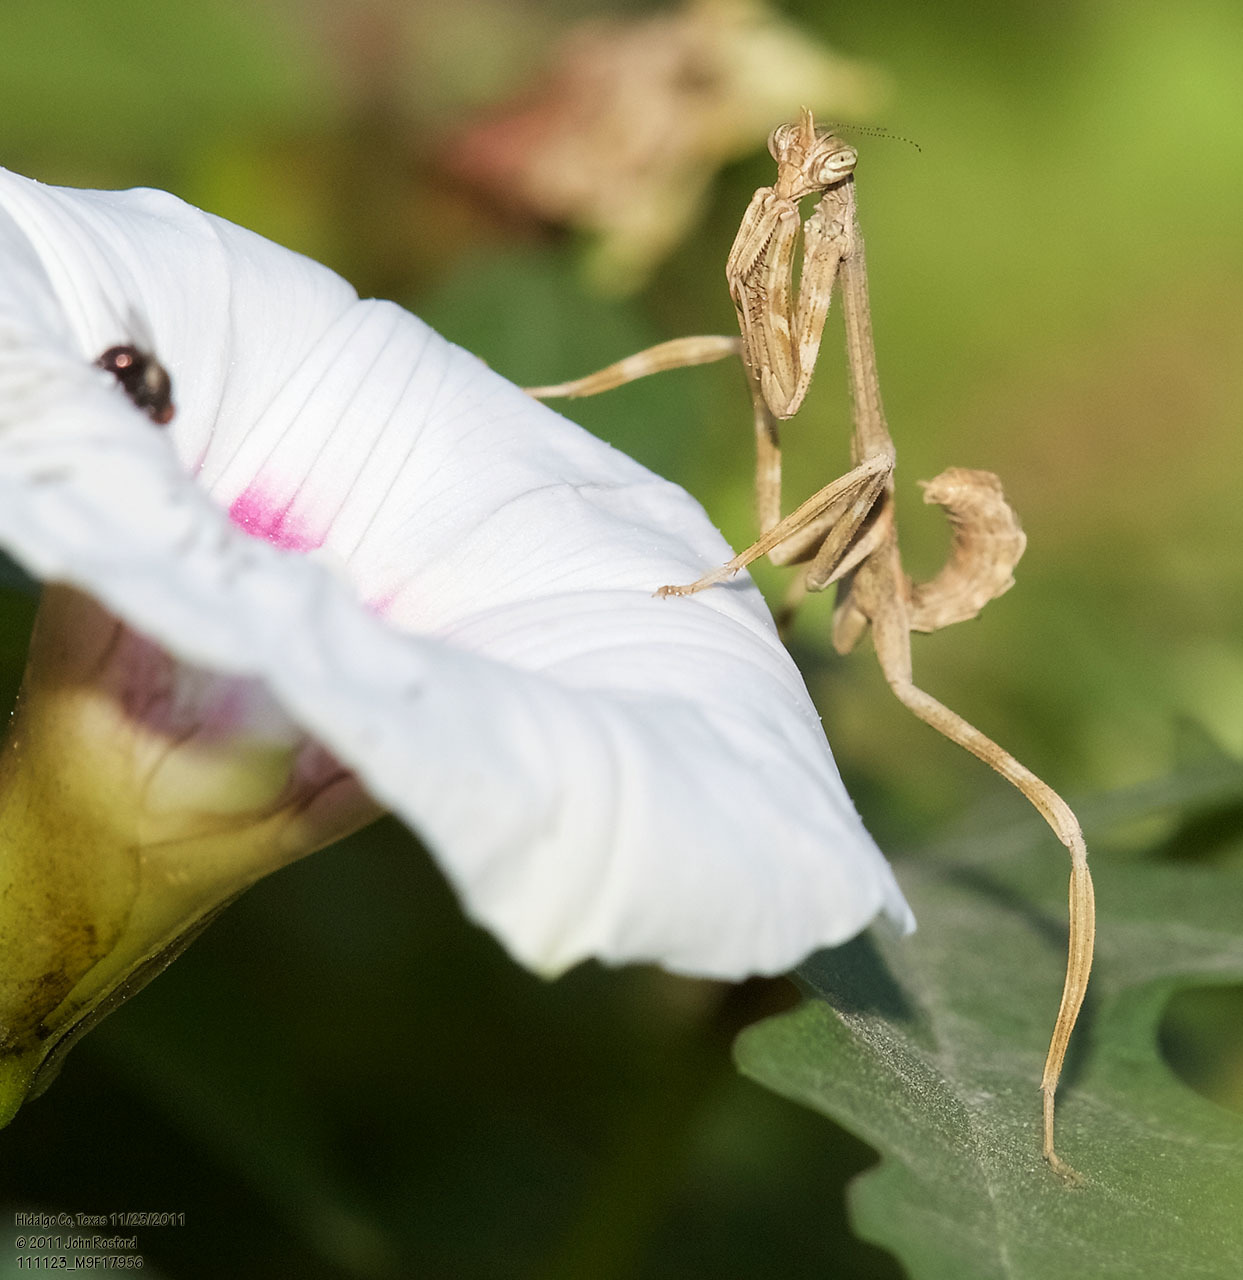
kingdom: Animalia
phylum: Arthropoda
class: Insecta
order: Mantodea
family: Mantidae
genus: Pseudovates
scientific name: Pseudovates chlorophaea
